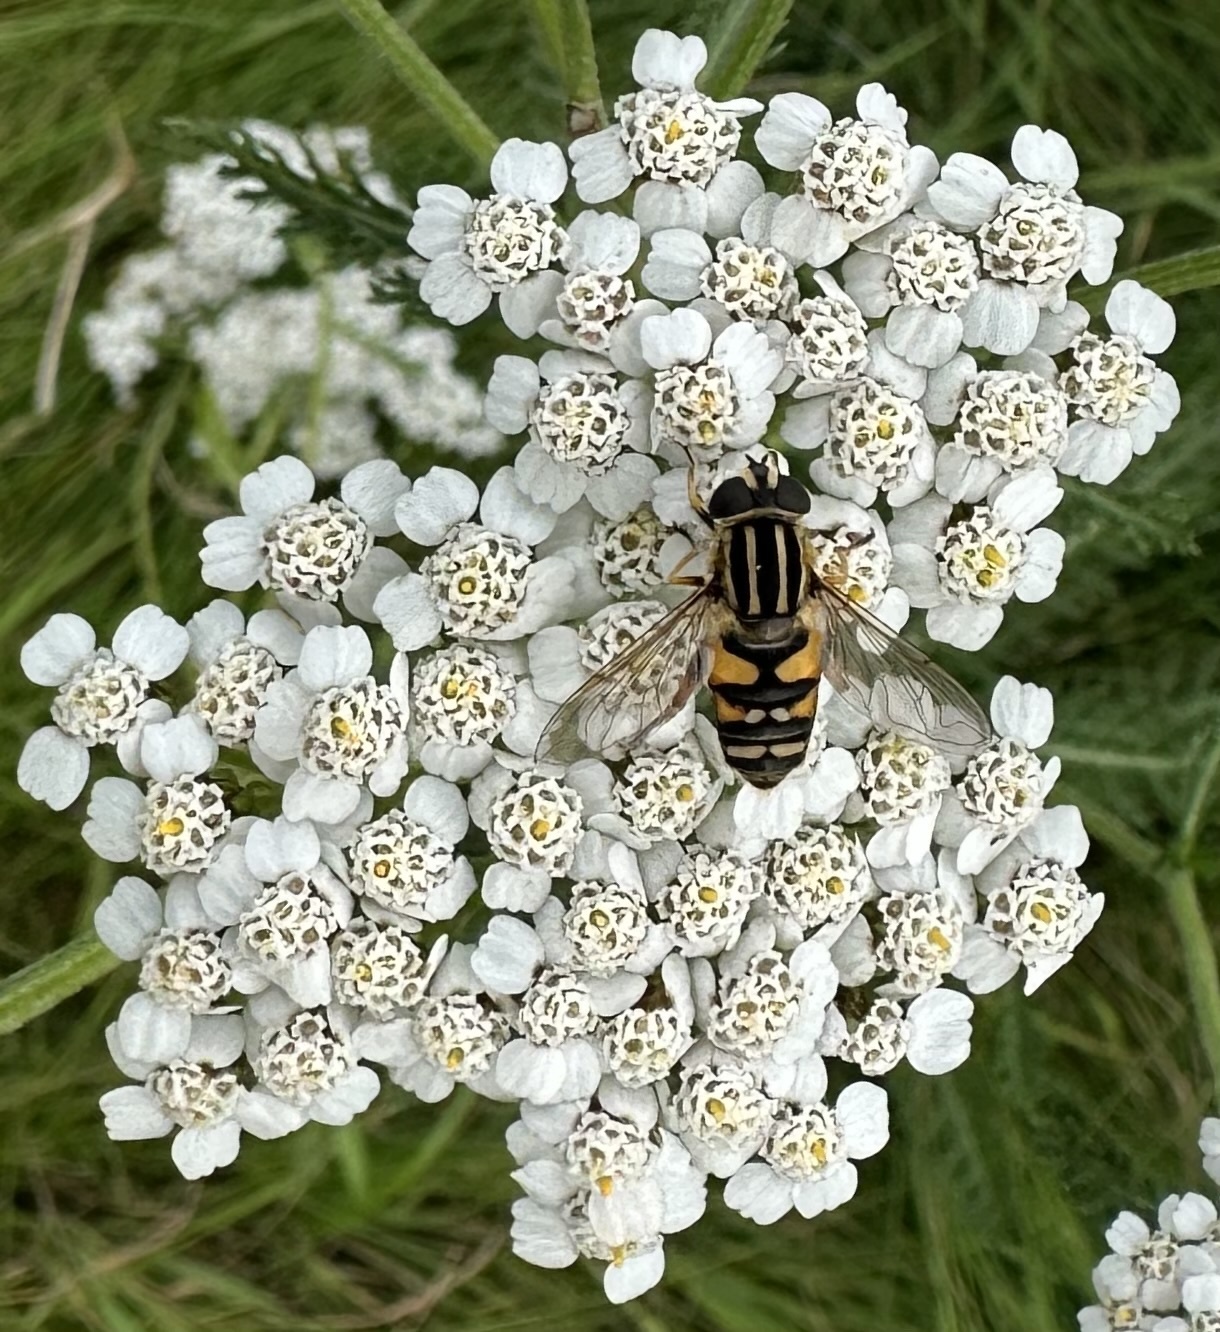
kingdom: Animalia
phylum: Arthropoda
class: Insecta
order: Diptera
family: Syrphidae
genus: Helophilus
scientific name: Helophilus pendulus
